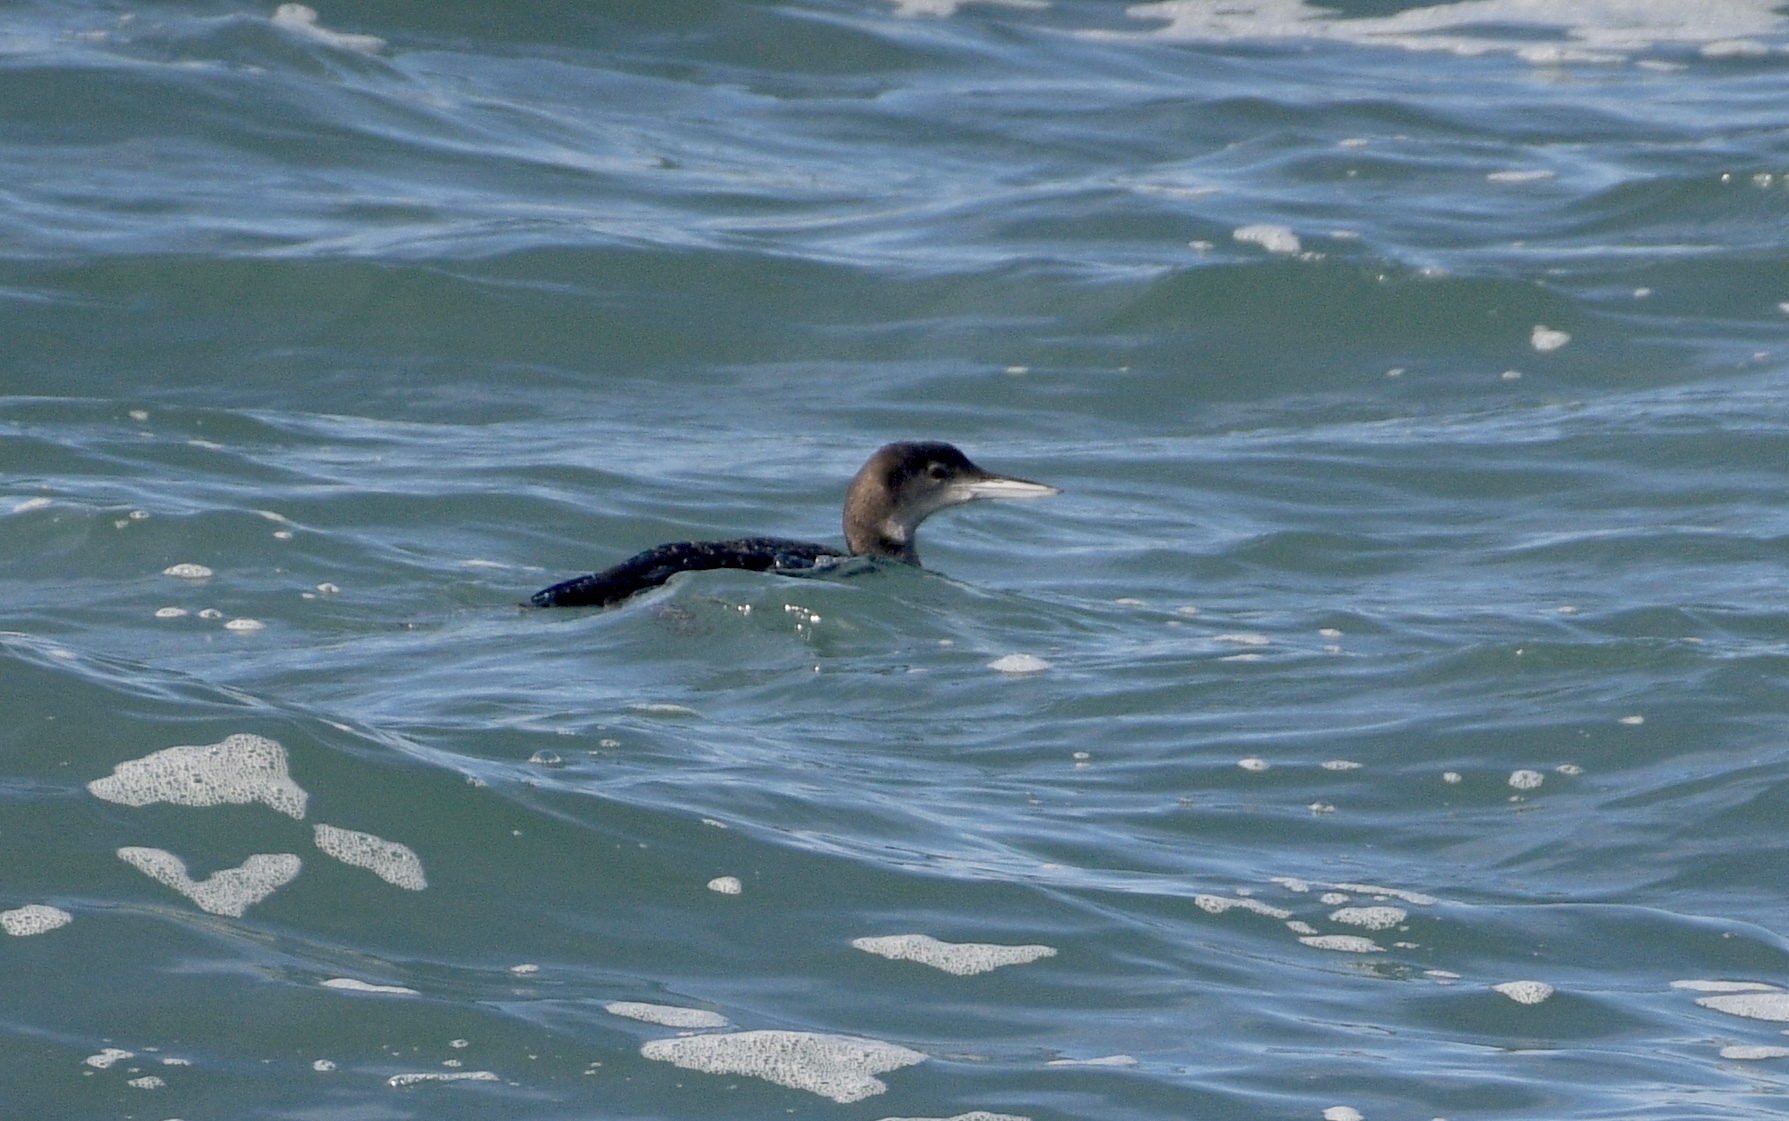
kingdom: Animalia
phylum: Chordata
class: Aves
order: Gaviiformes
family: Gaviidae
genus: Gavia
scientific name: Gavia immer
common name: Common loon
